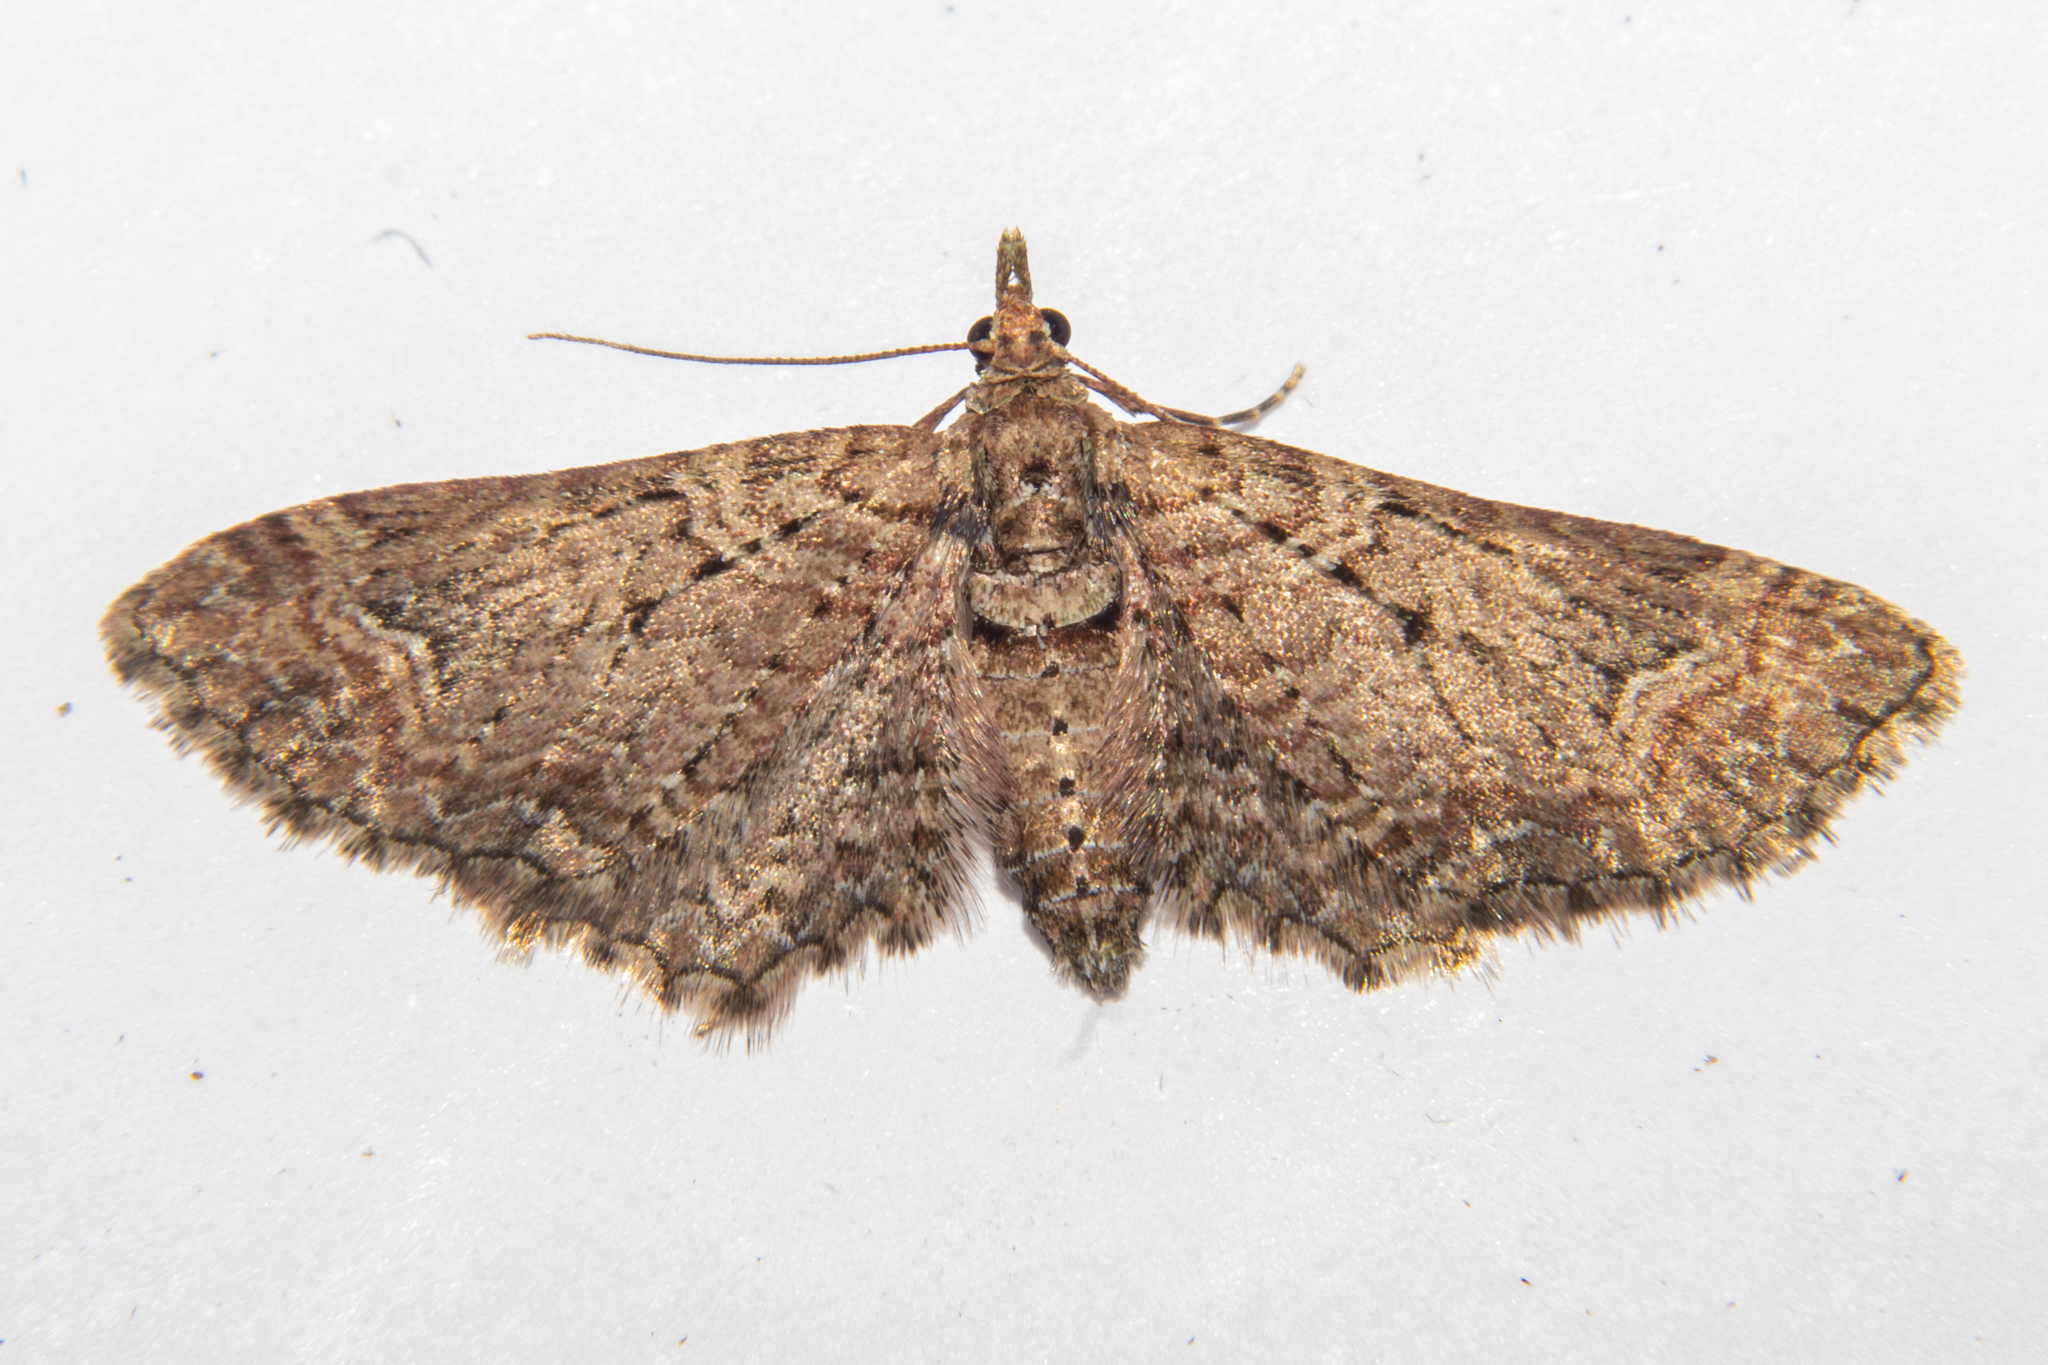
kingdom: Animalia
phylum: Arthropoda
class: Insecta
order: Lepidoptera
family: Geometridae
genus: Idaea
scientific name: Idaea mutanda
